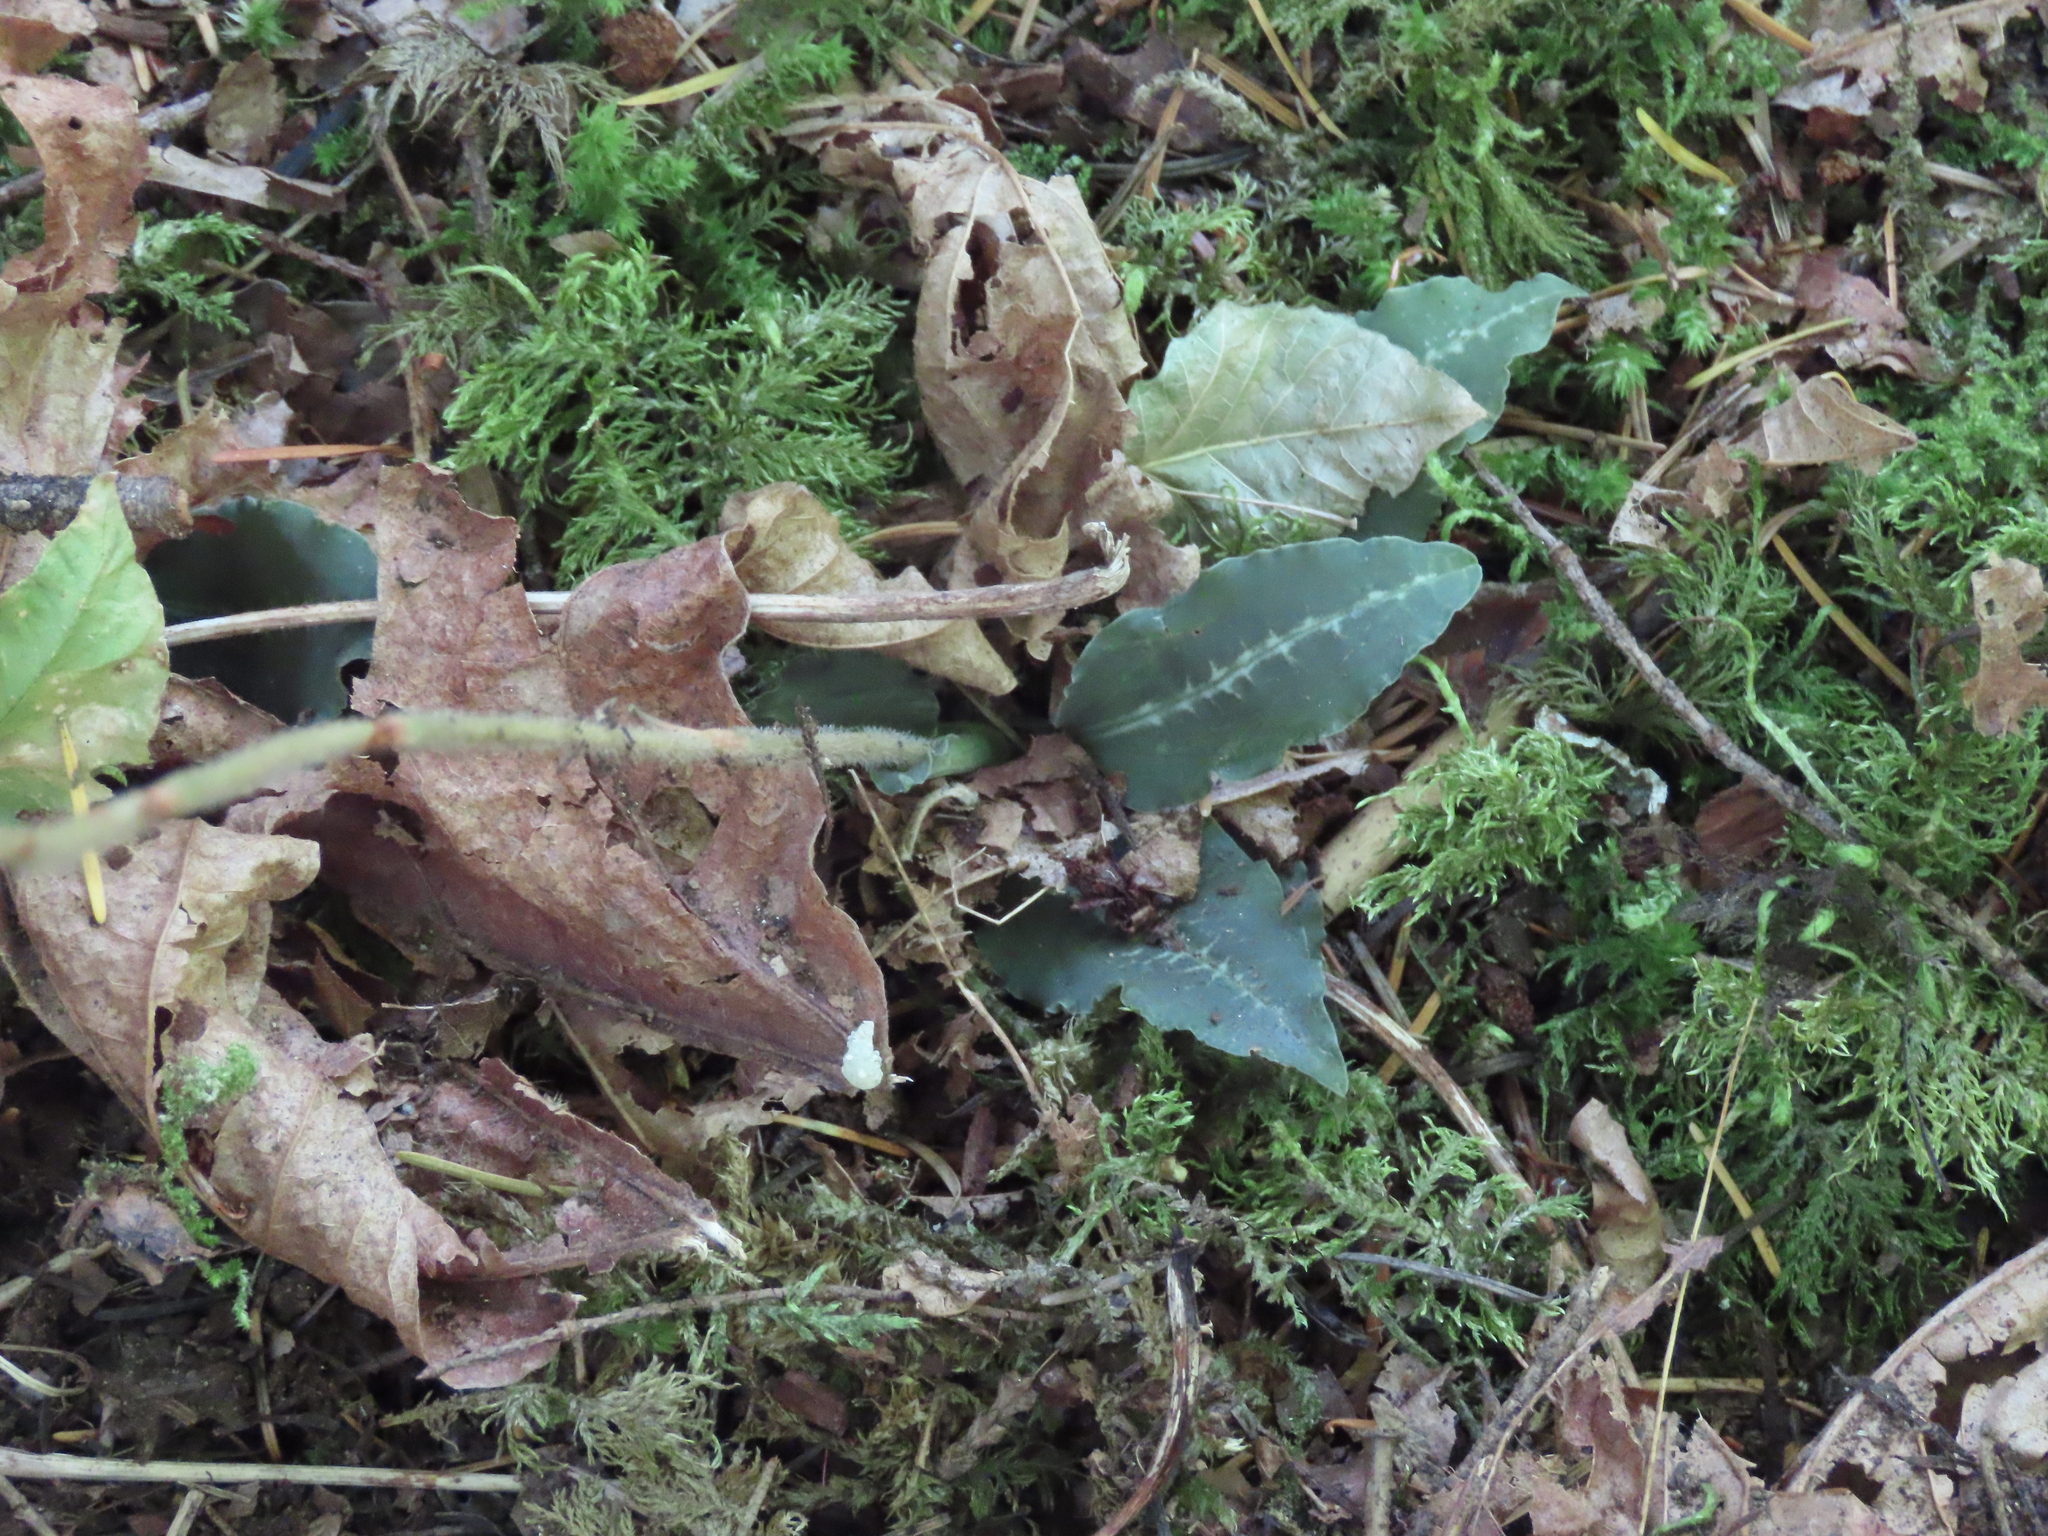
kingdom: Plantae
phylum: Tracheophyta
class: Liliopsida
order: Asparagales
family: Orchidaceae
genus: Goodyera
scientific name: Goodyera oblongifolia
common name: Giant rattlesnake-plantain
